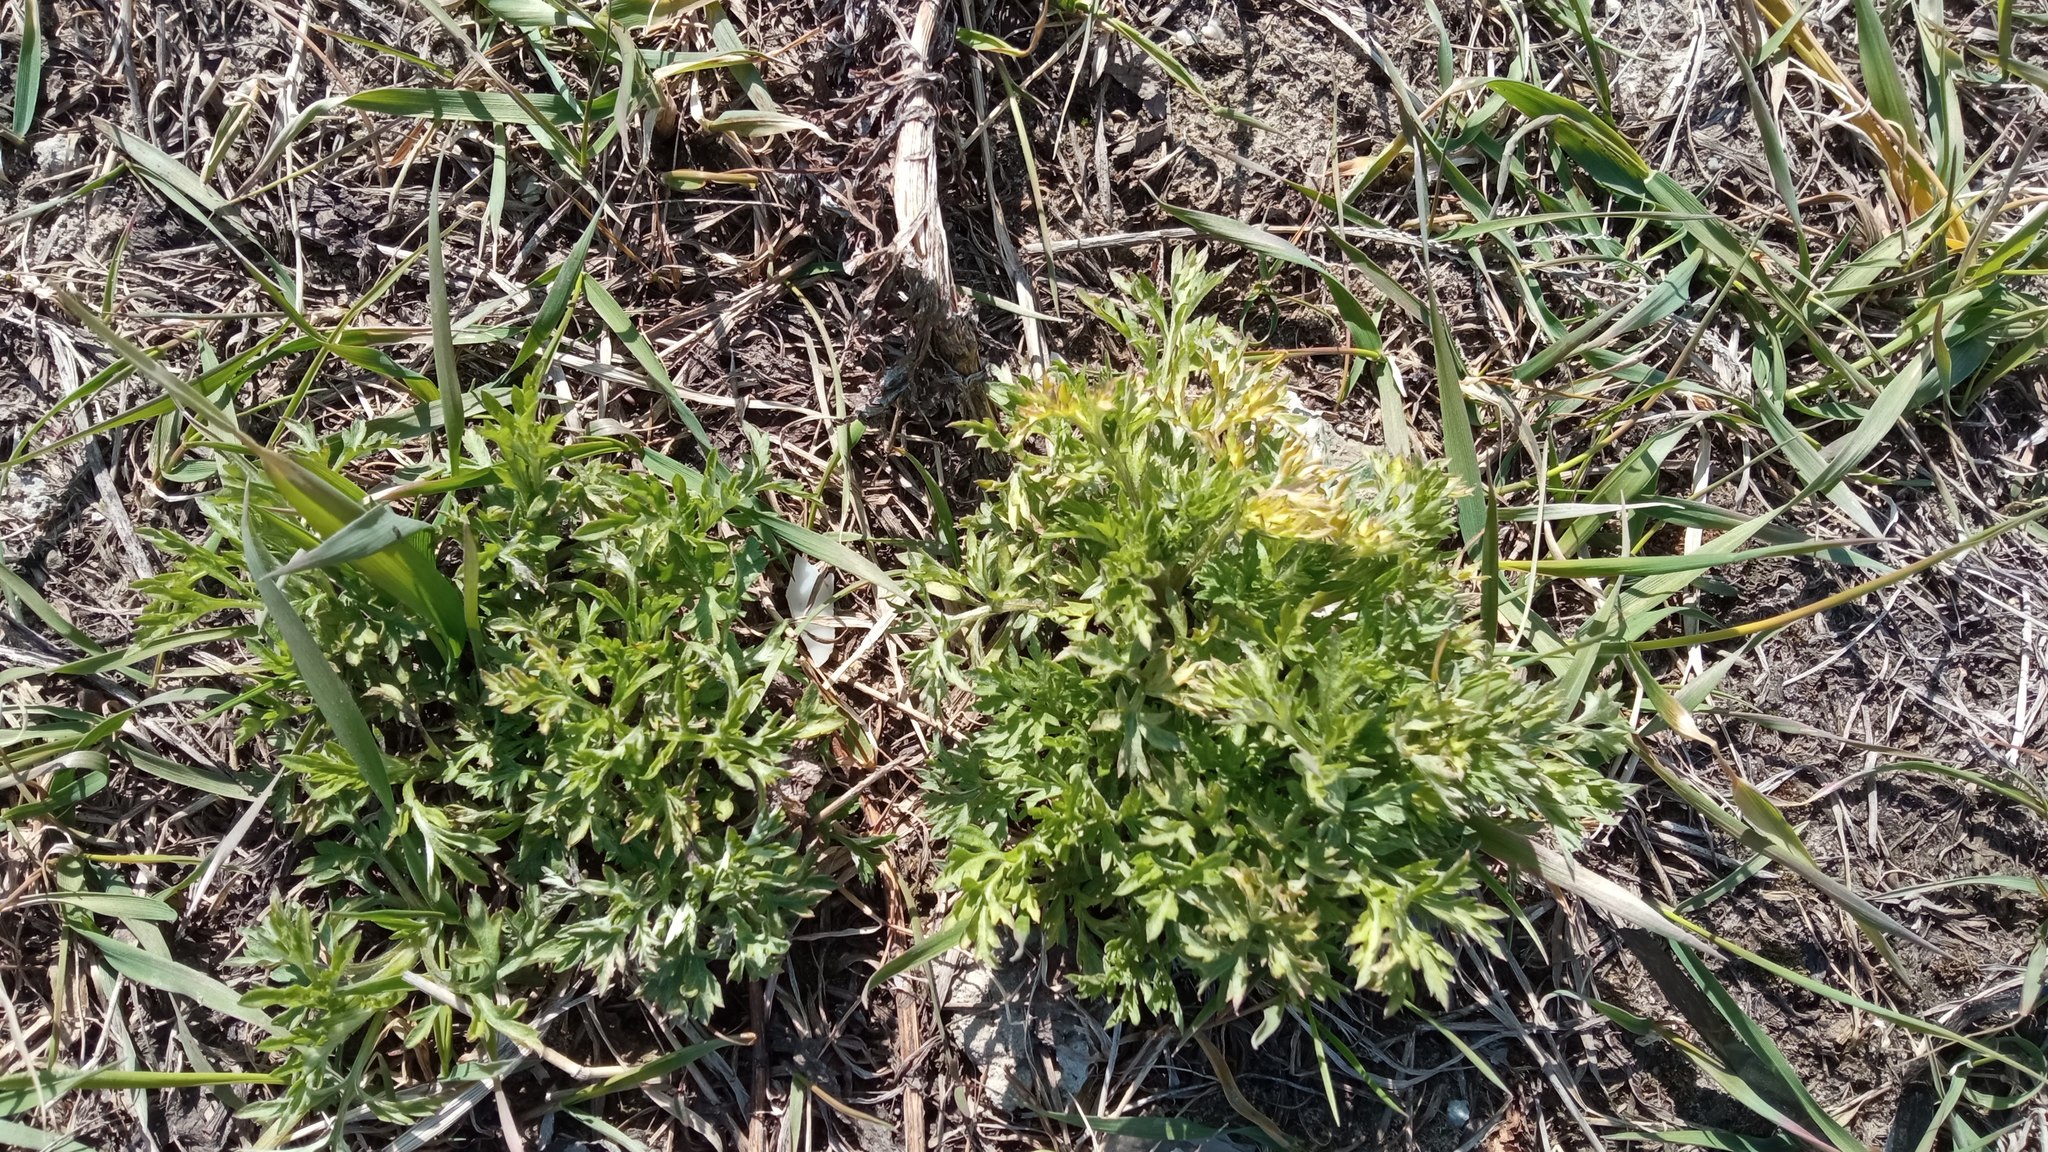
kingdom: Plantae
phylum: Tracheophyta
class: Magnoliopsida
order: Asterales
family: Asteraceae
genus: Artemisia
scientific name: Artemisia vulgaris
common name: Mugwort
